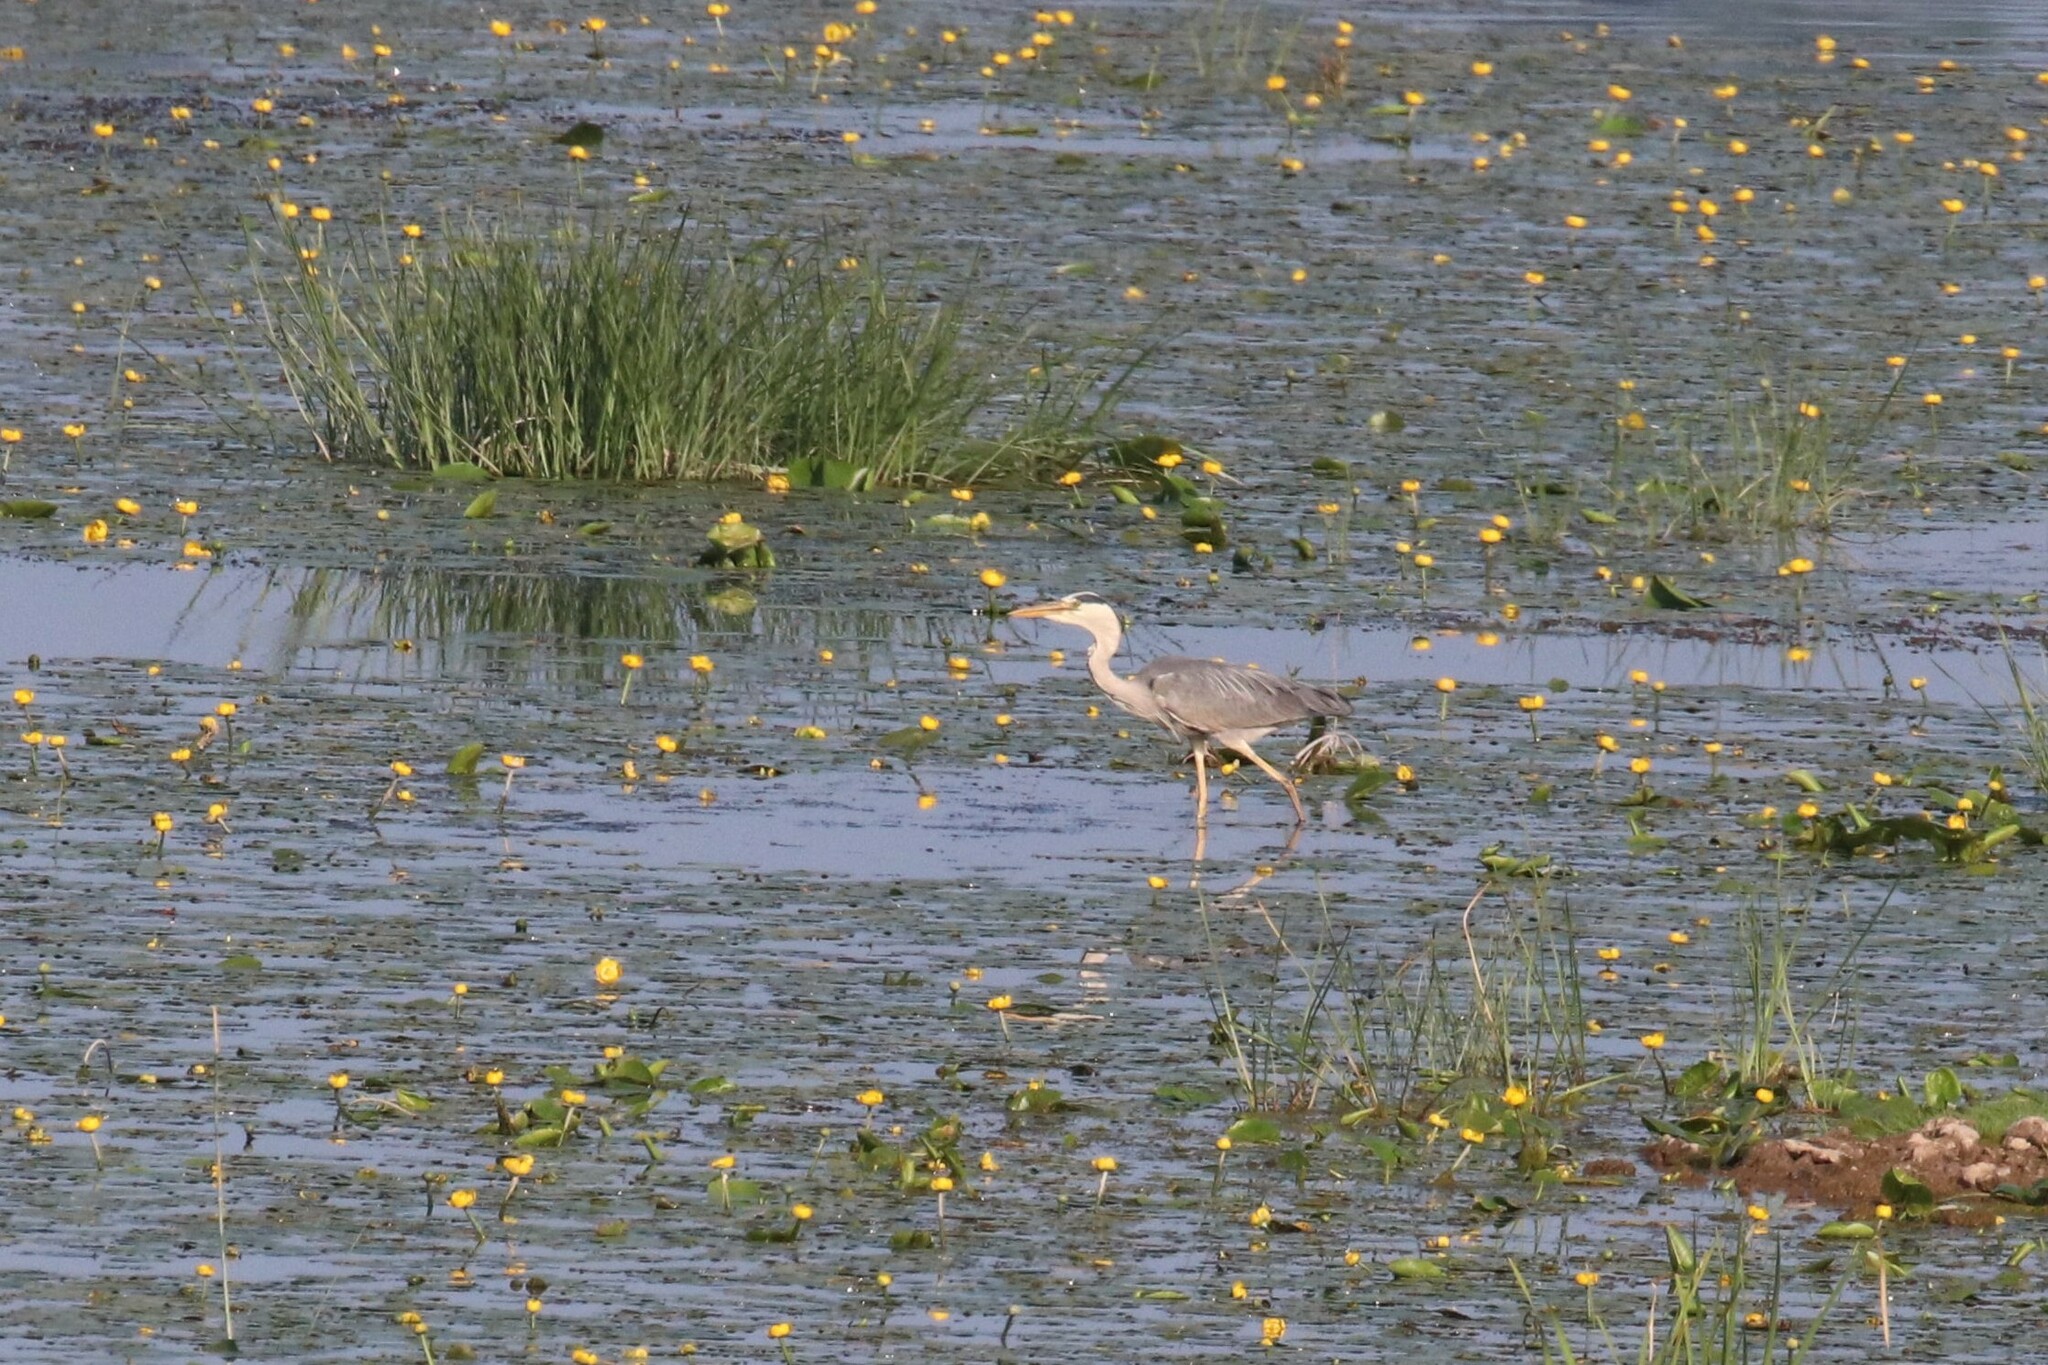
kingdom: Animalia
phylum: Chordata
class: Aves
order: Pelecaniformes
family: Ardeidae
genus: Ardea
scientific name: Ardea cinerea
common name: Grey heron
